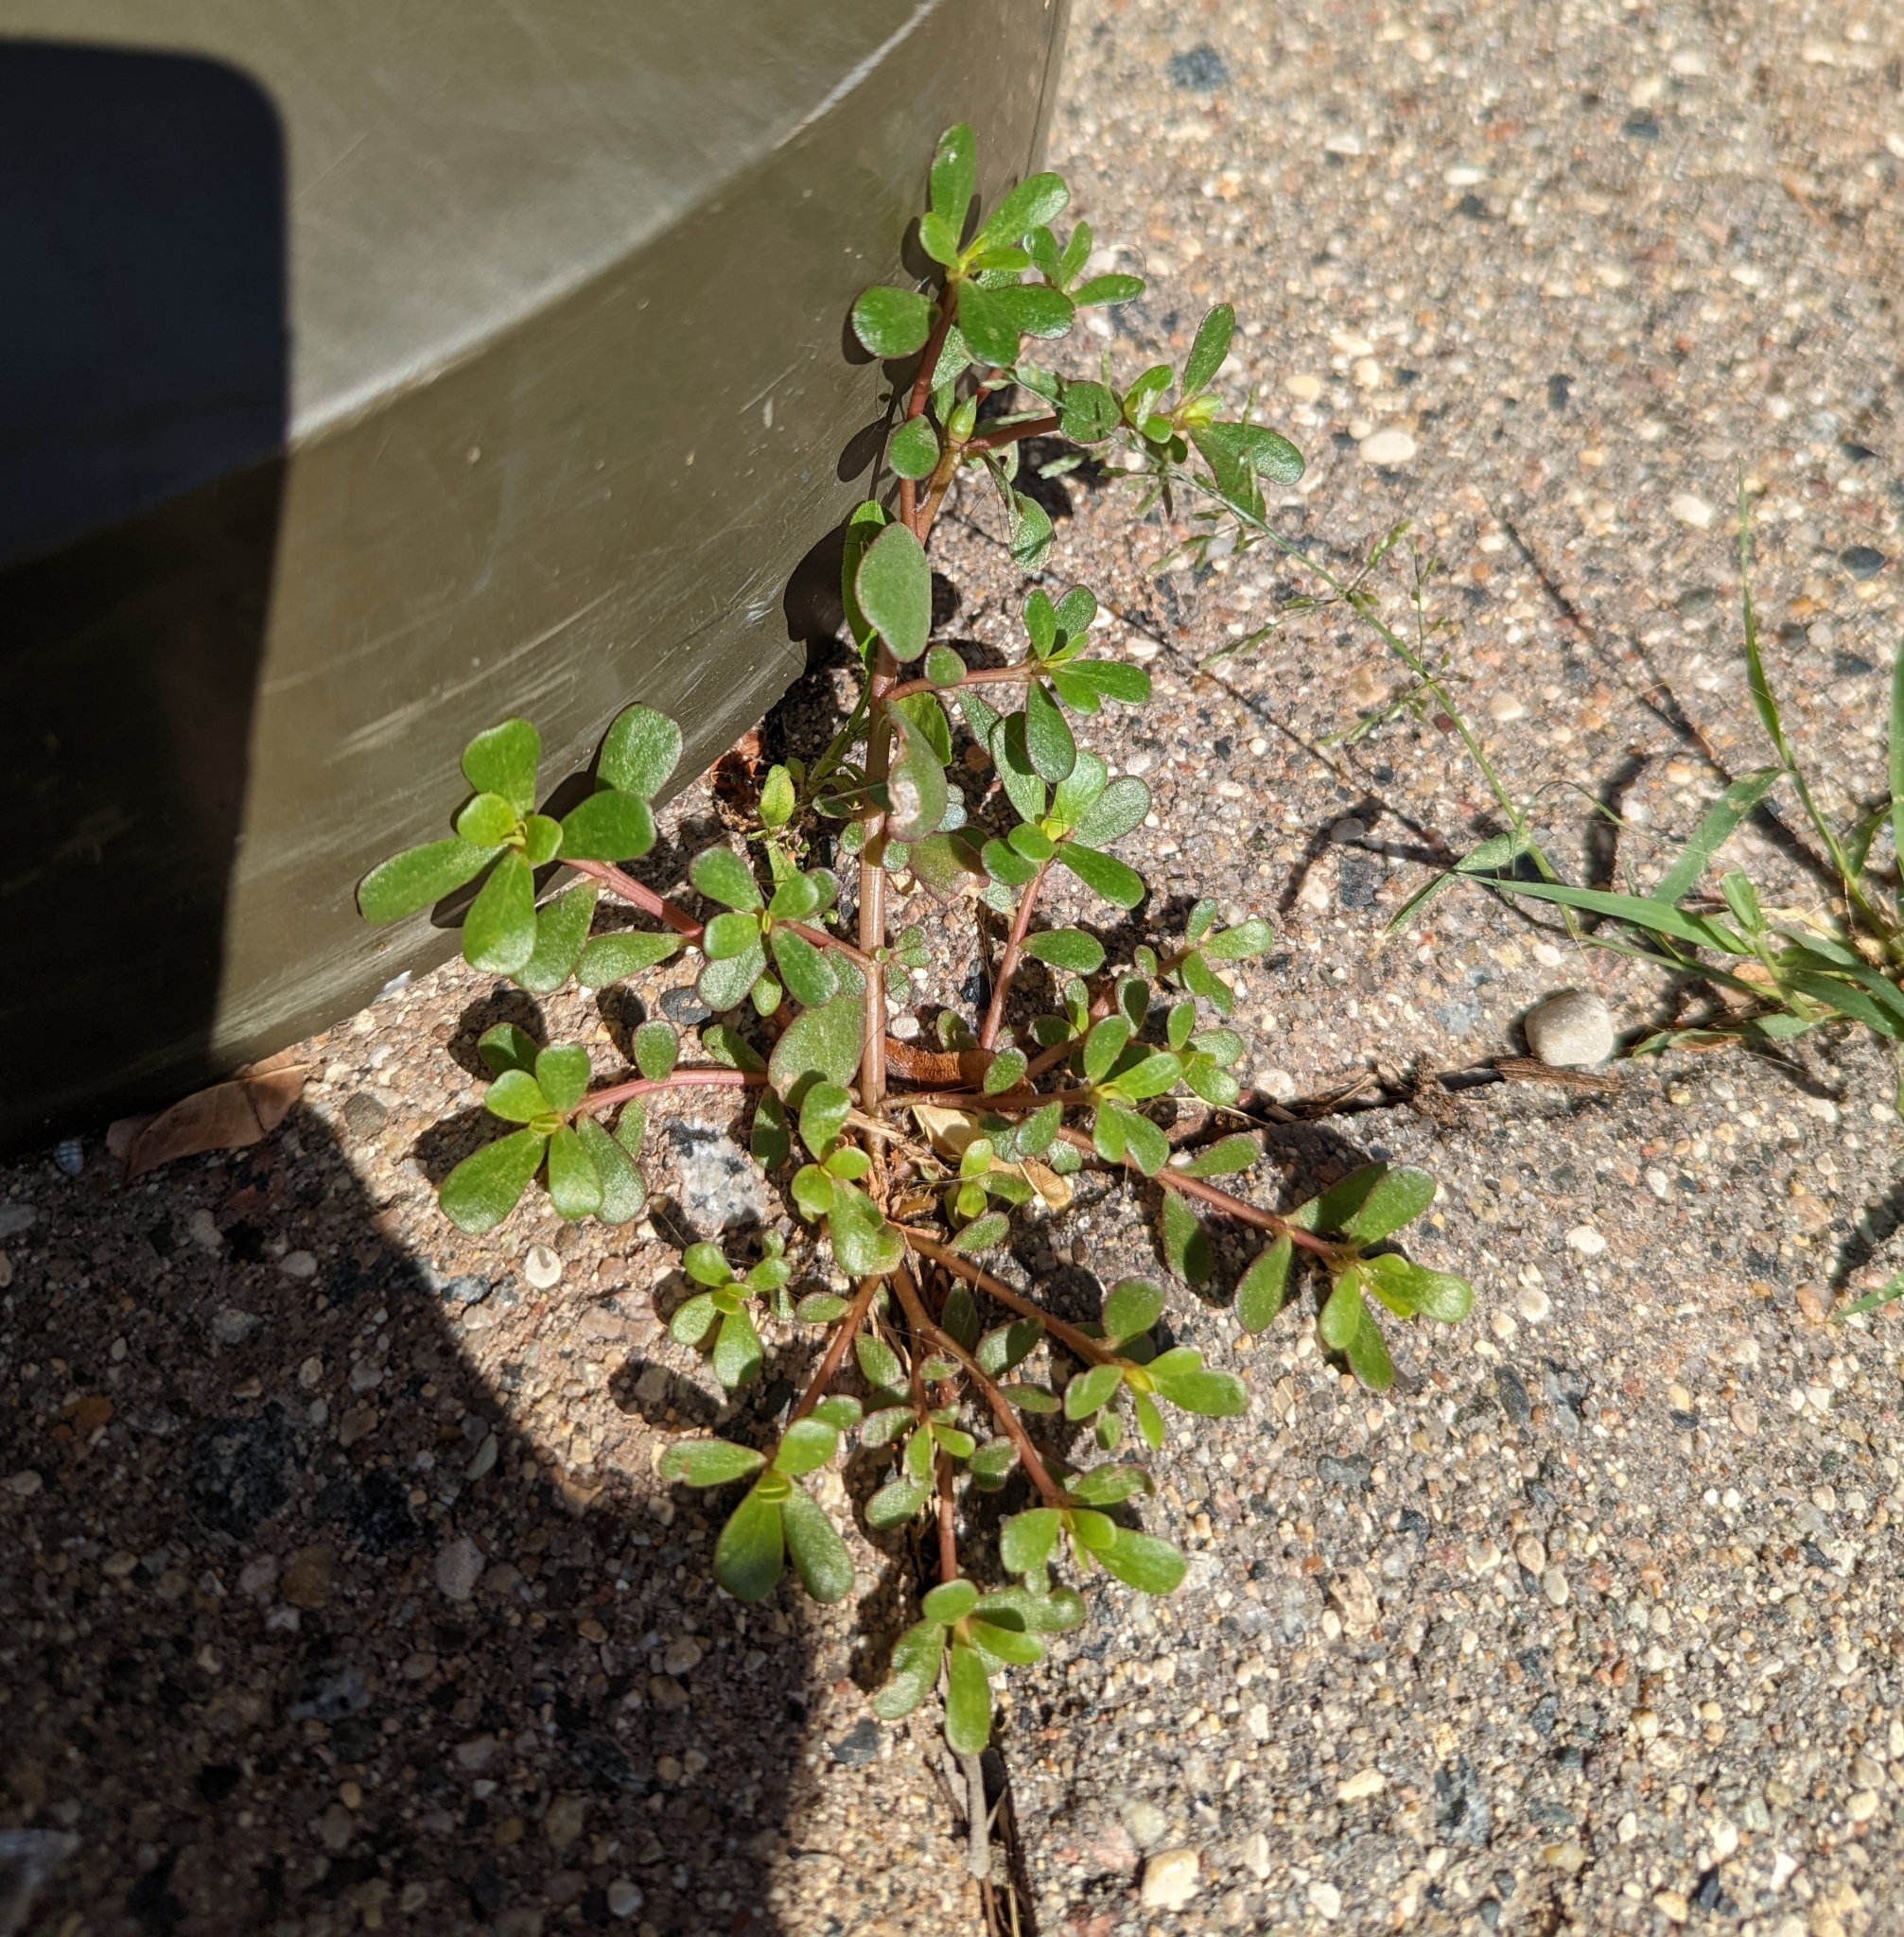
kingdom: Plantae
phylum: Tracheophyta
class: Magnoliopsida
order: Caryophyllales
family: Portulacaceae
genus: Portulaca
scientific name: Portulaca oleracea
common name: Common purslane
